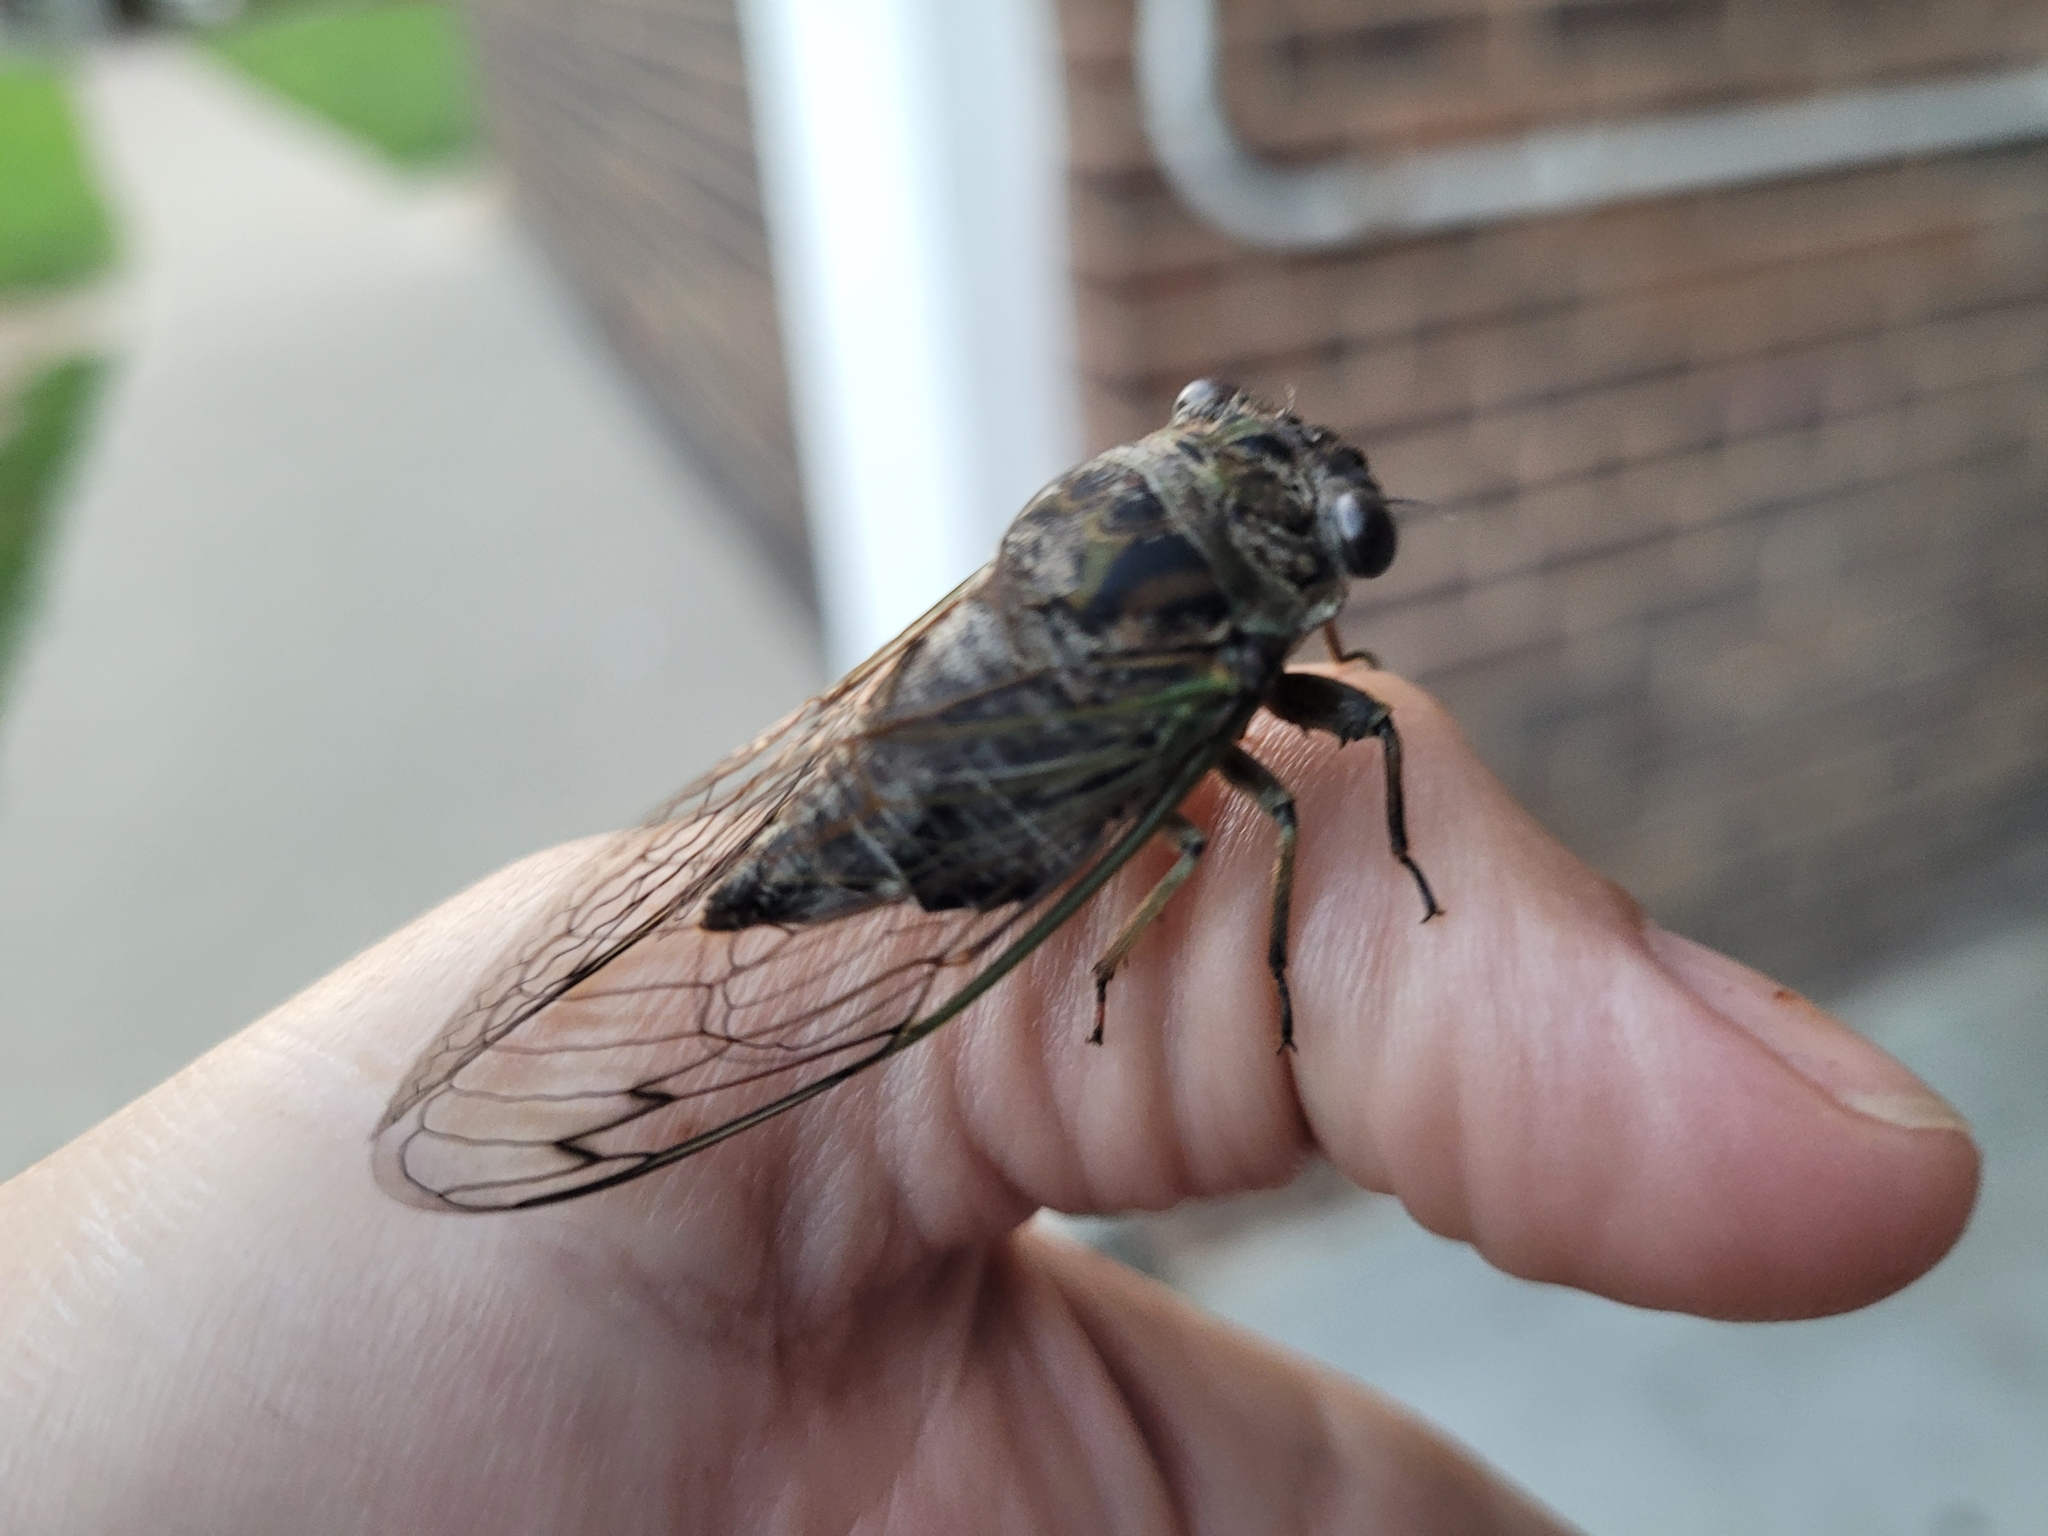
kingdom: Animalia
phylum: Arthropoda
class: Insecta
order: Hemiptera
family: Cicadidae
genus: Neotibicen
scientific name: Neotibicen canicularis
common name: God-day cicada
